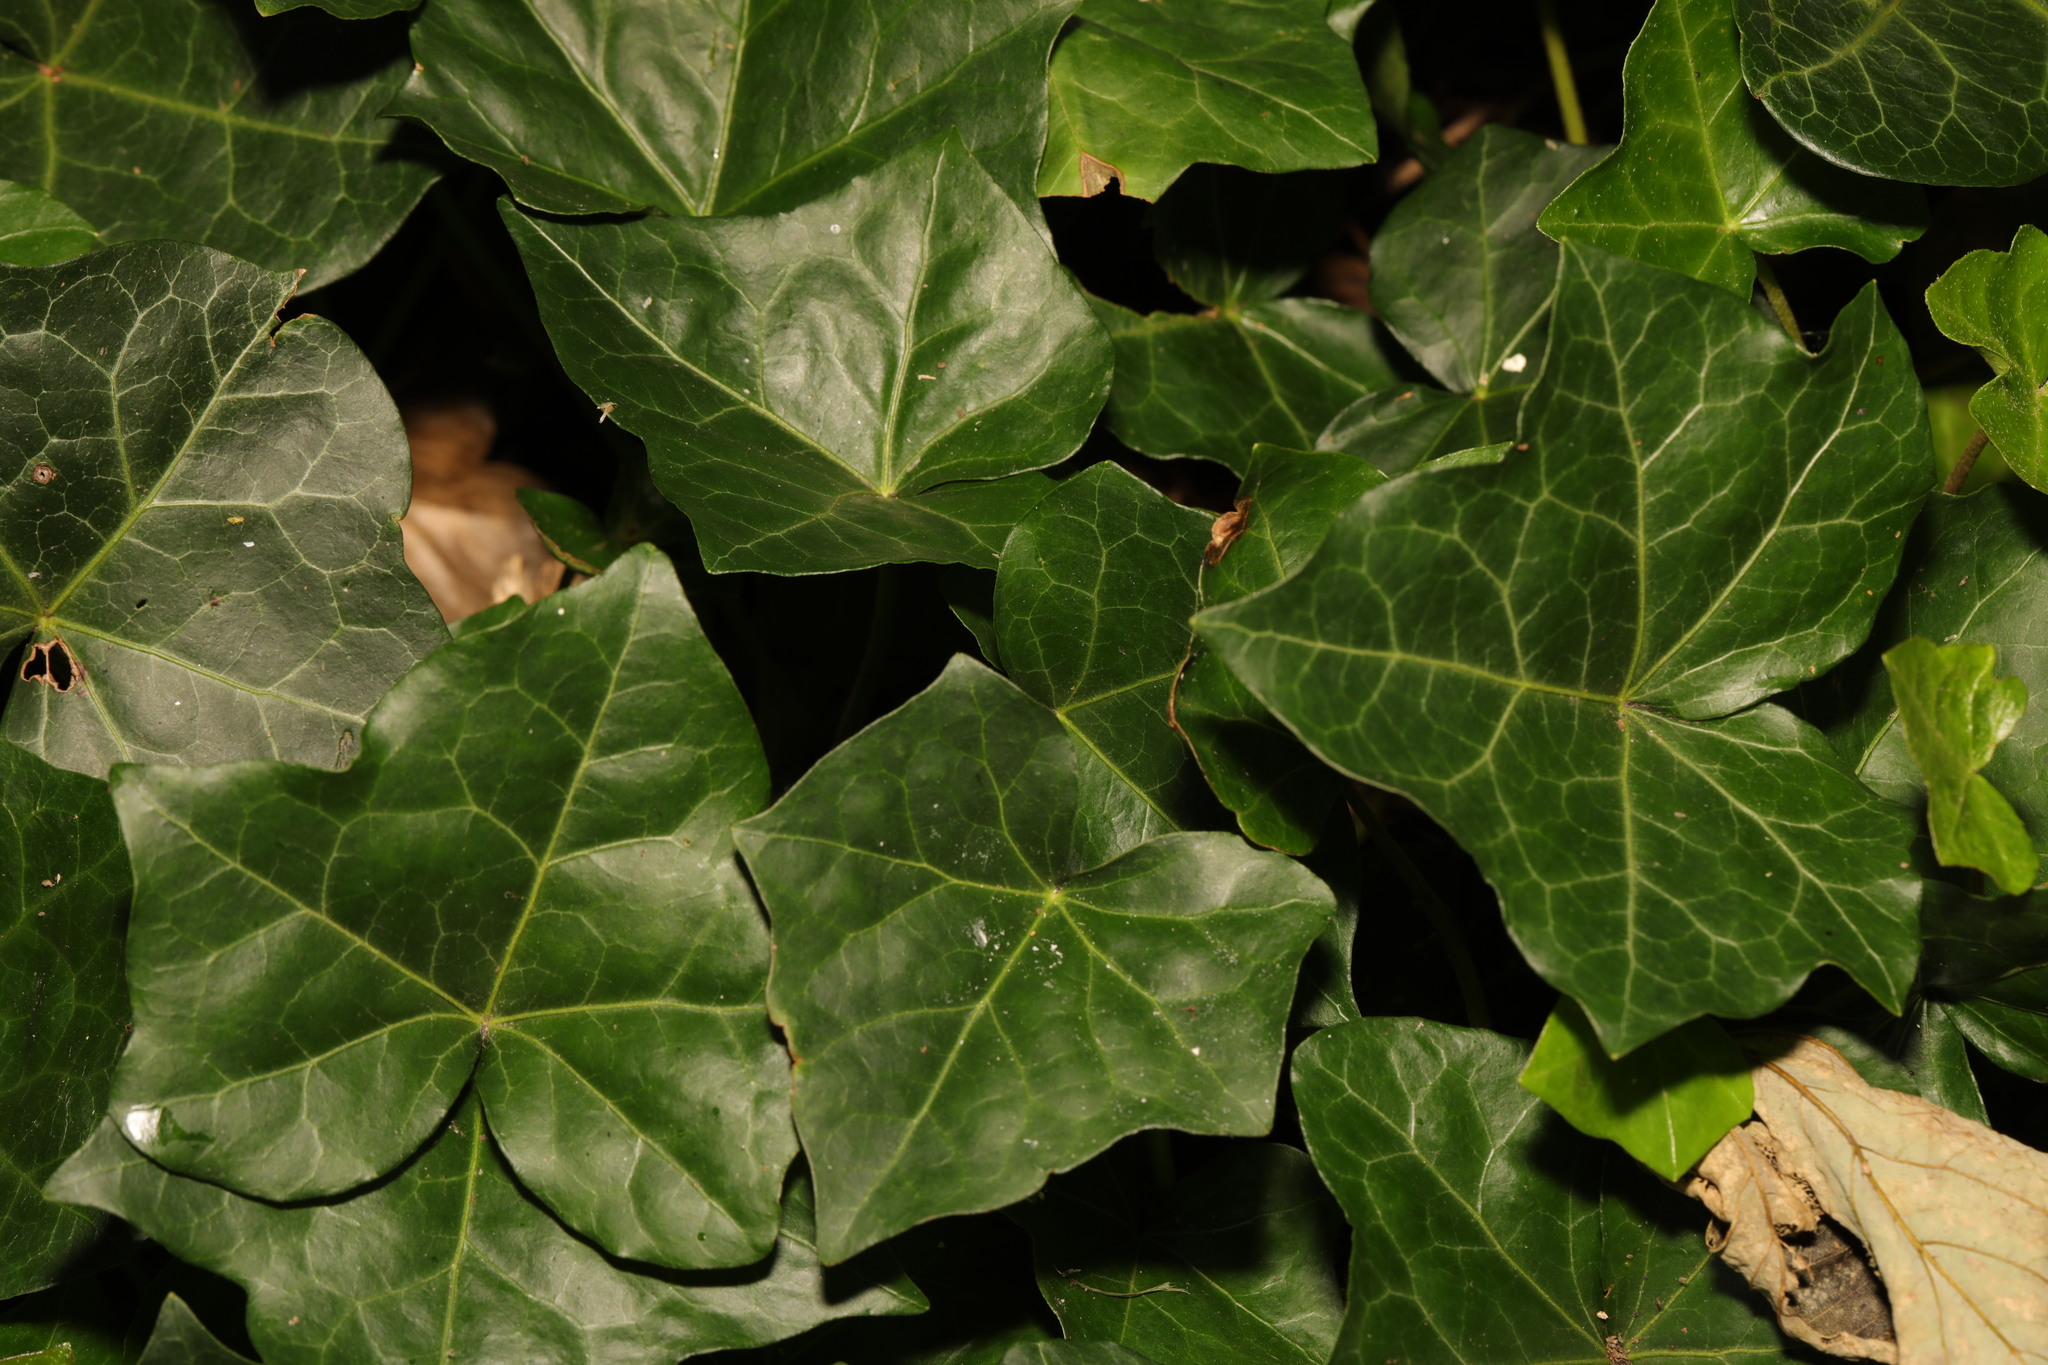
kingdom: Plantae
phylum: Tracheophyta
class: Magnoliopsida
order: Apiales
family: Araliaceae
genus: Hedera
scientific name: Hedera helix
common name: Ivy
